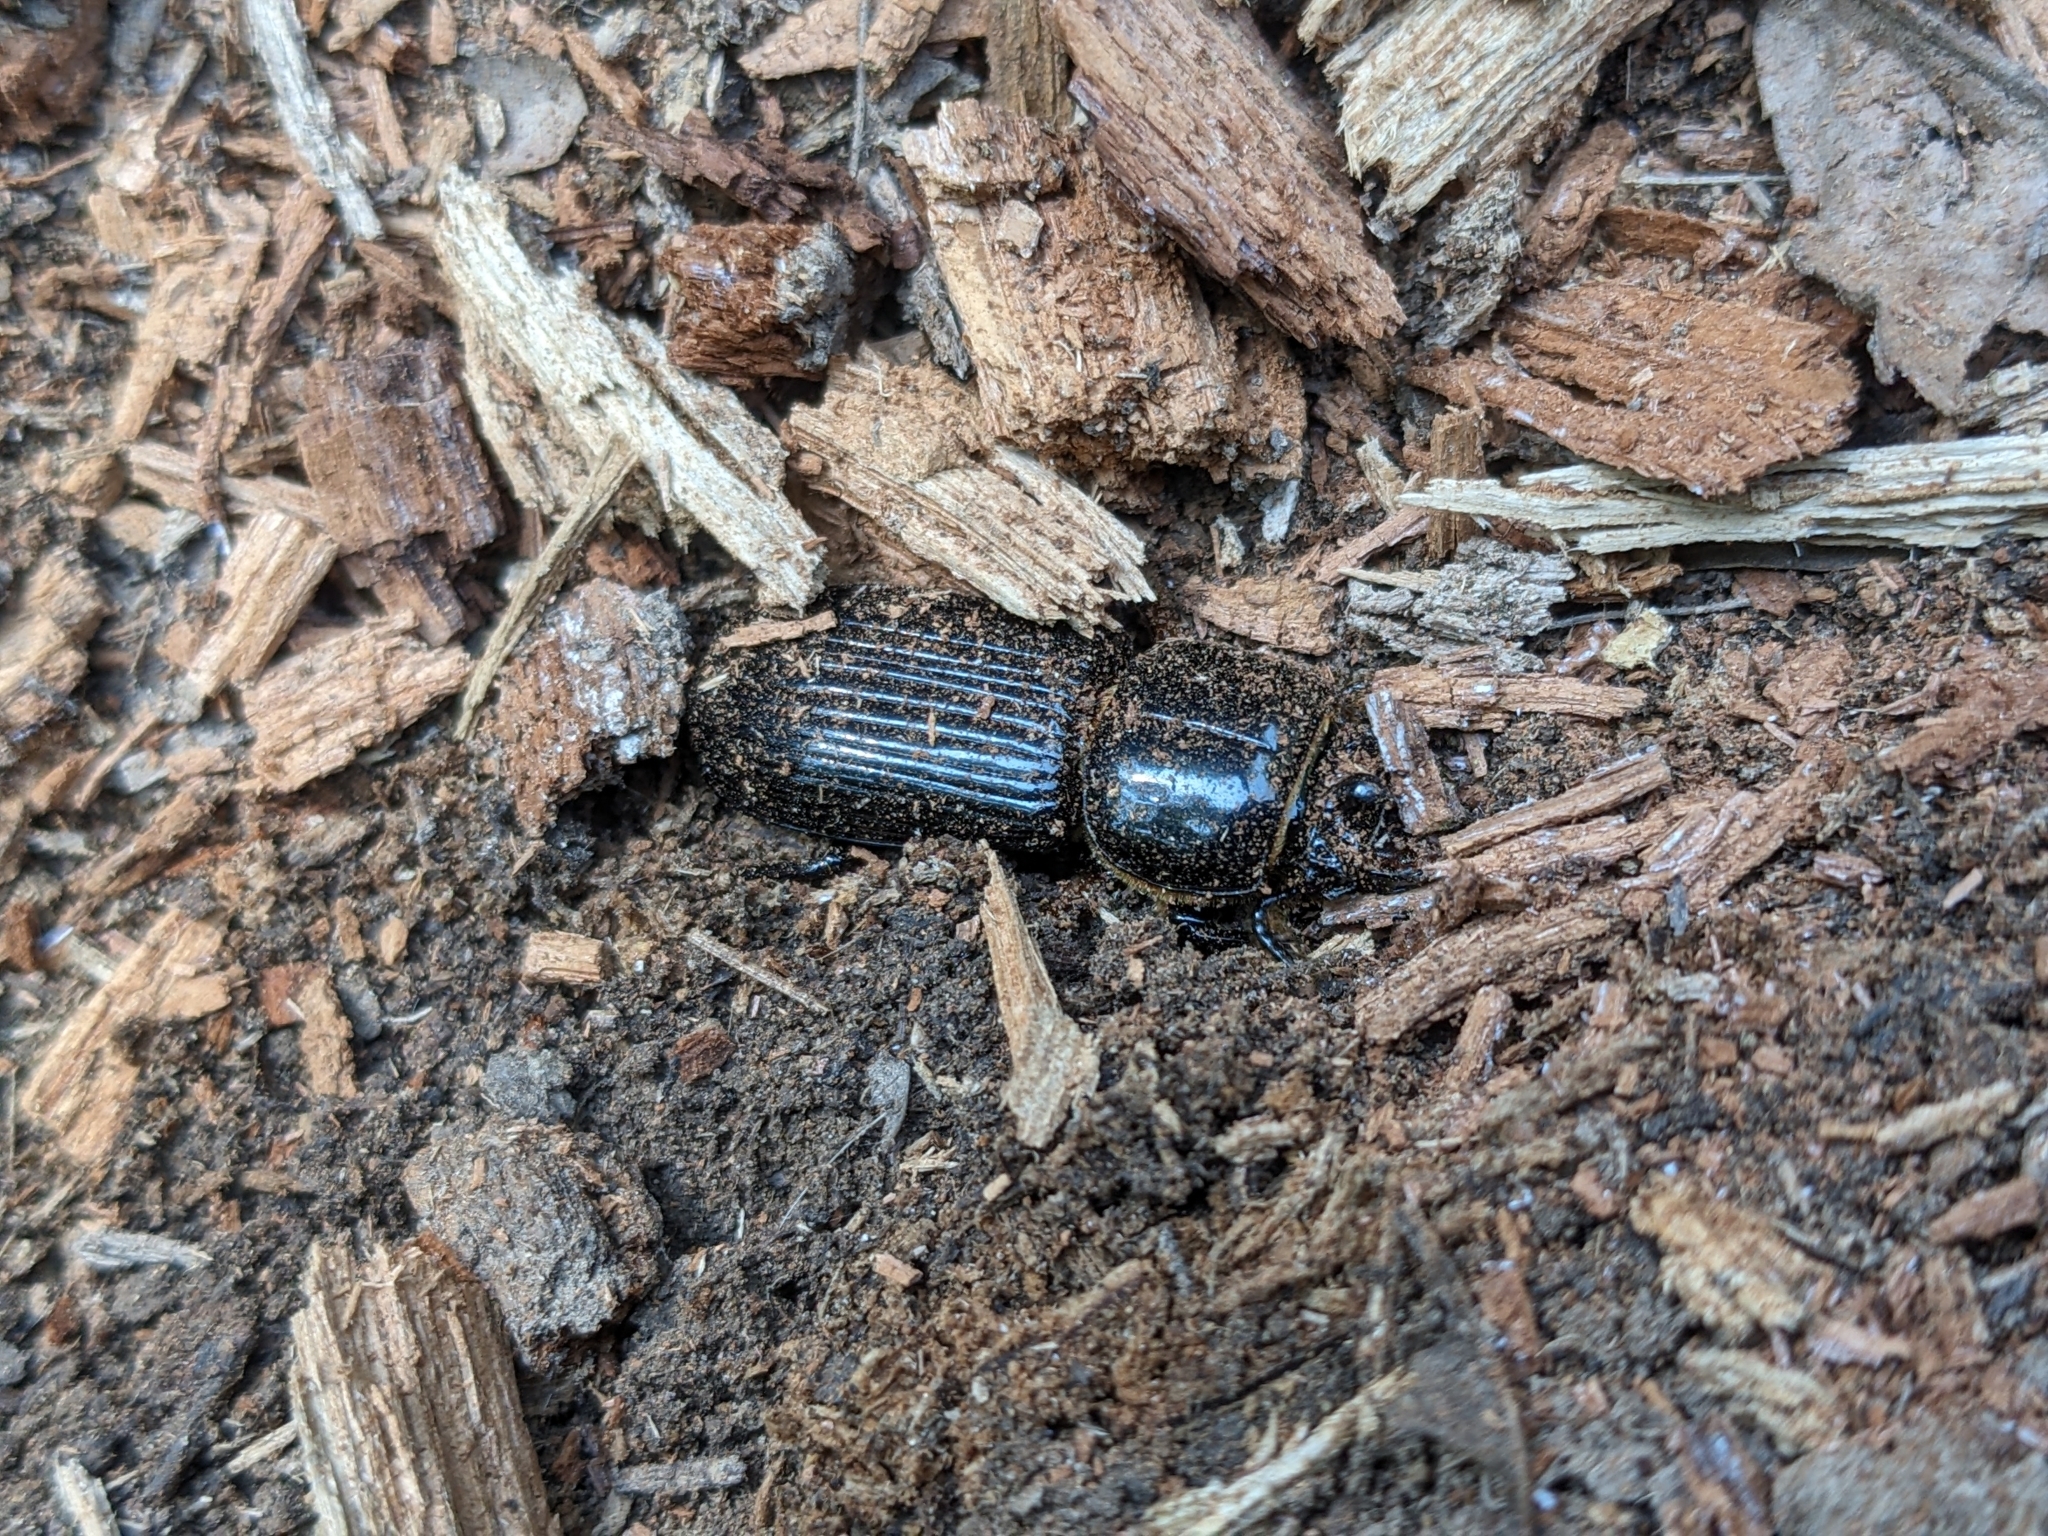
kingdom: Animalia
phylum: Arthropoda
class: Insecta
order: Coleoptera
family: Passalidae
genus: Odontotaenius
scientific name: Odontotaenius disjunctus
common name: Patent leather beetle
